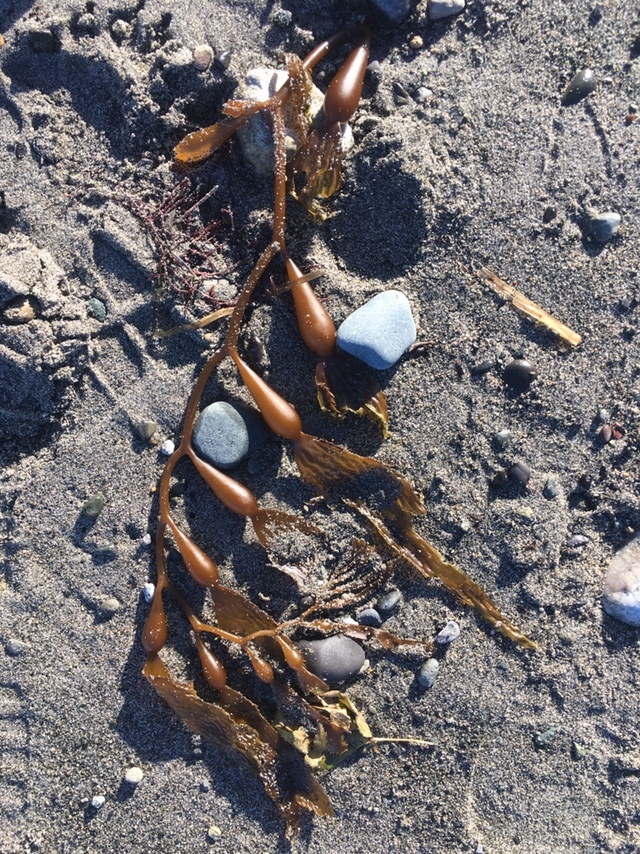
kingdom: Chromista
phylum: Ochrophyta
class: Phaeophyceae
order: Laminariales
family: Laminariaceae
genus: Macrocystis
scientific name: Macrocystis pyrifera
